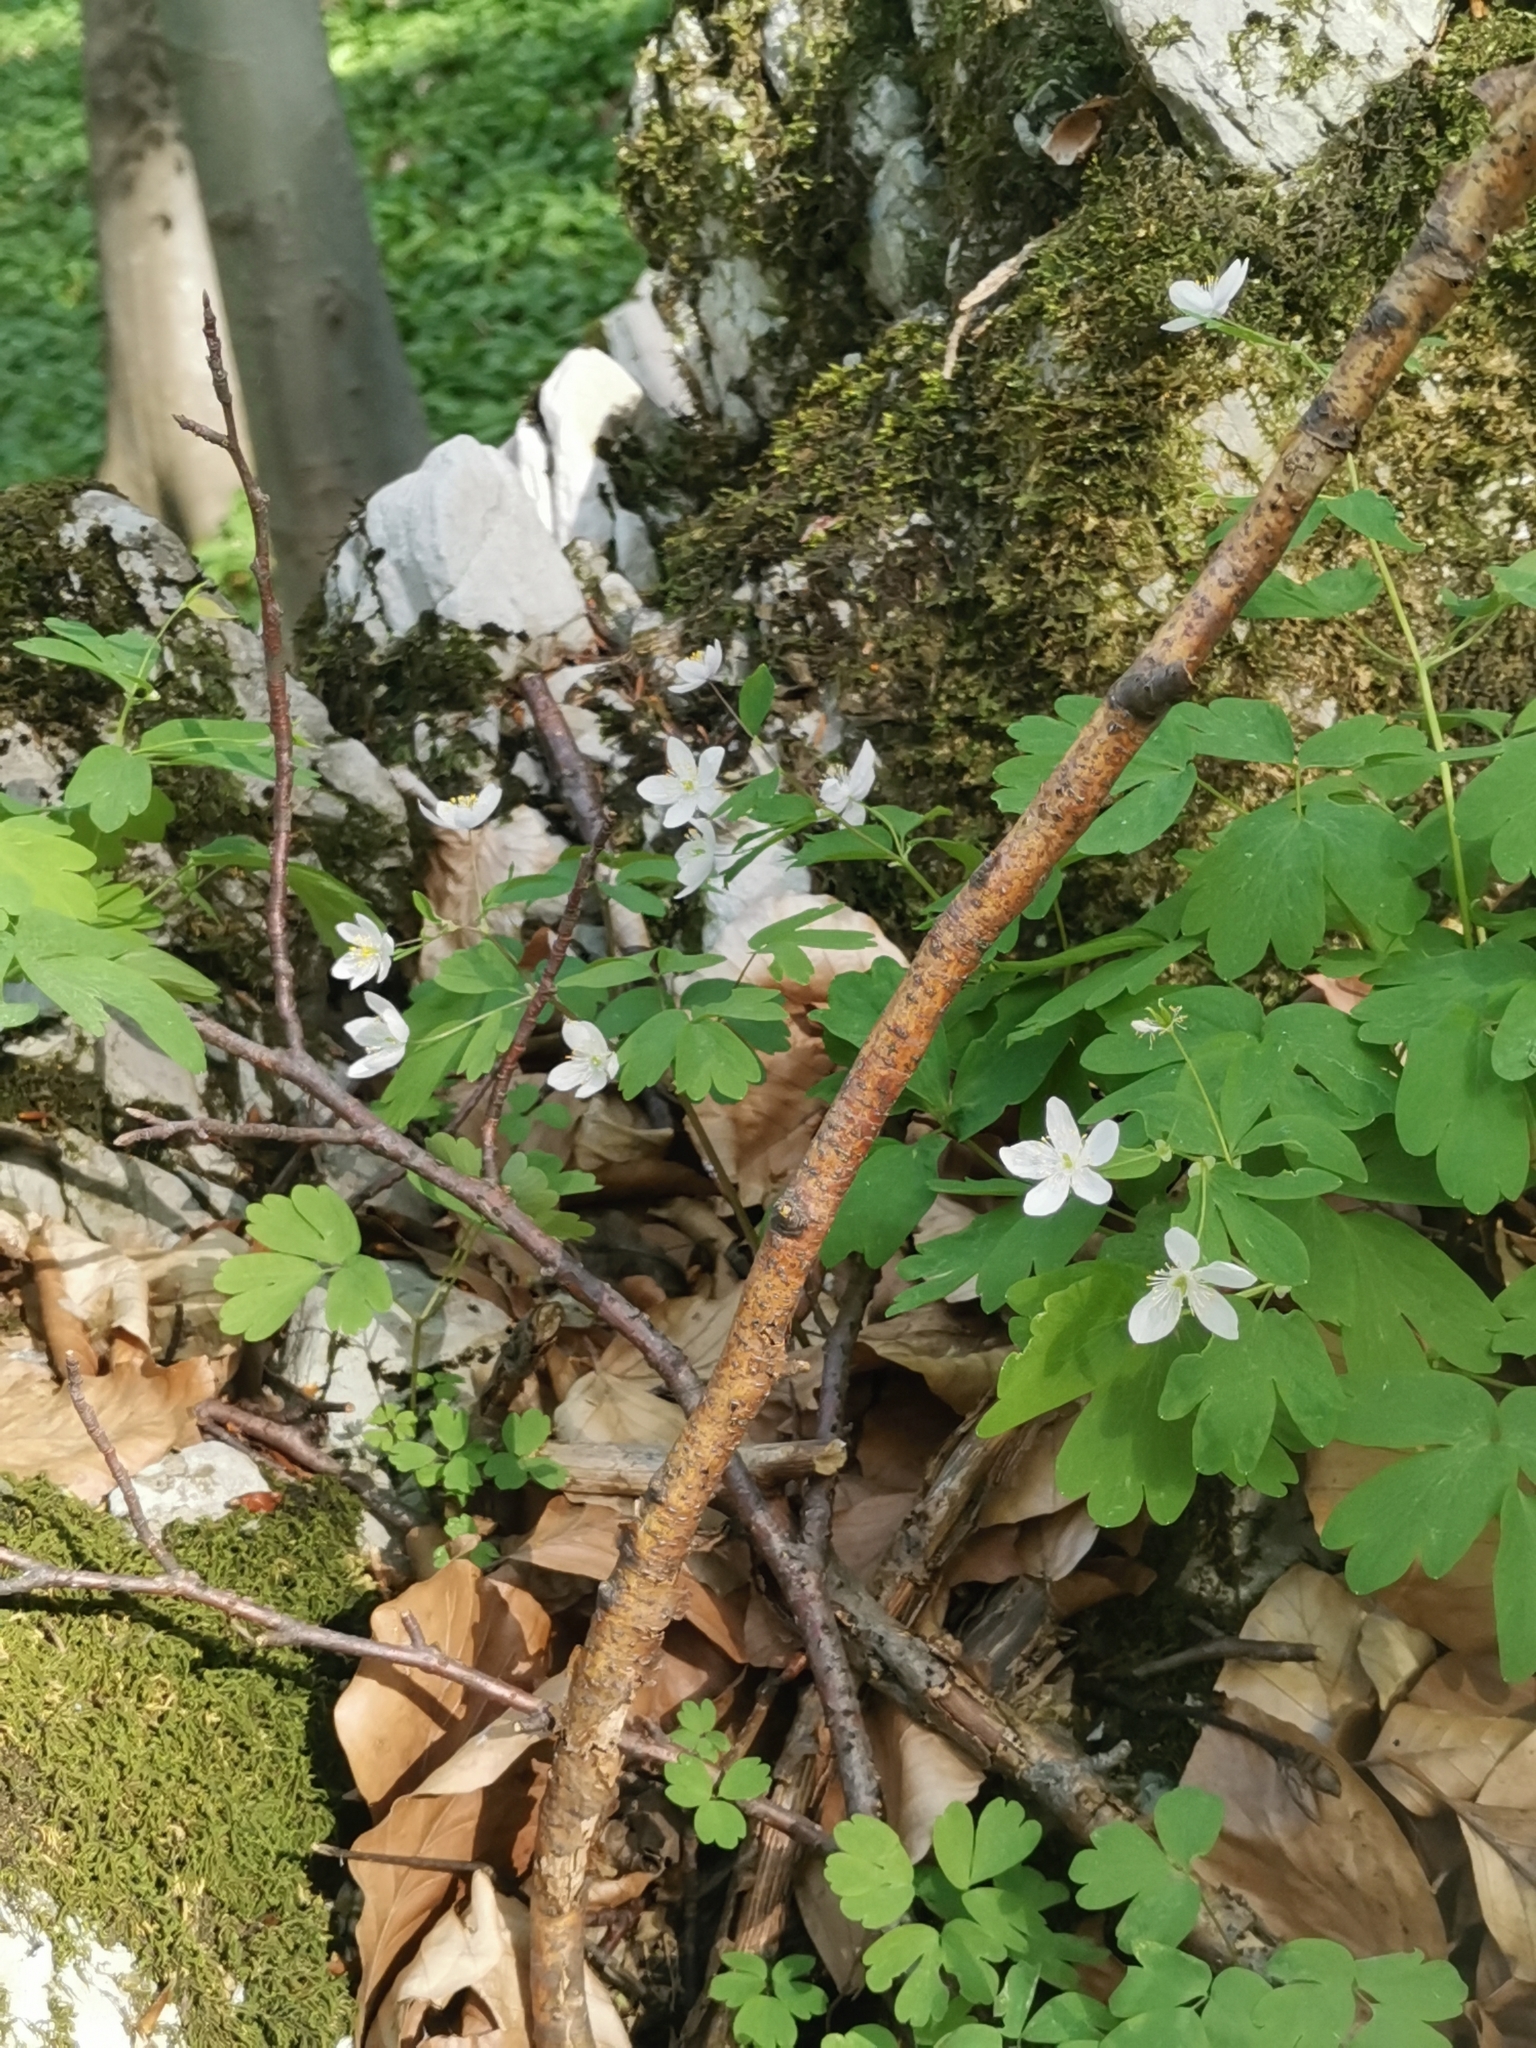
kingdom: Plantae
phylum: Tracheophyta
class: Magnoliopsida
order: Ranunculales
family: Ranunculaceae
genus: Isopyrum
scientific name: Isopyrum thalictroides
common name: Isopyrum
